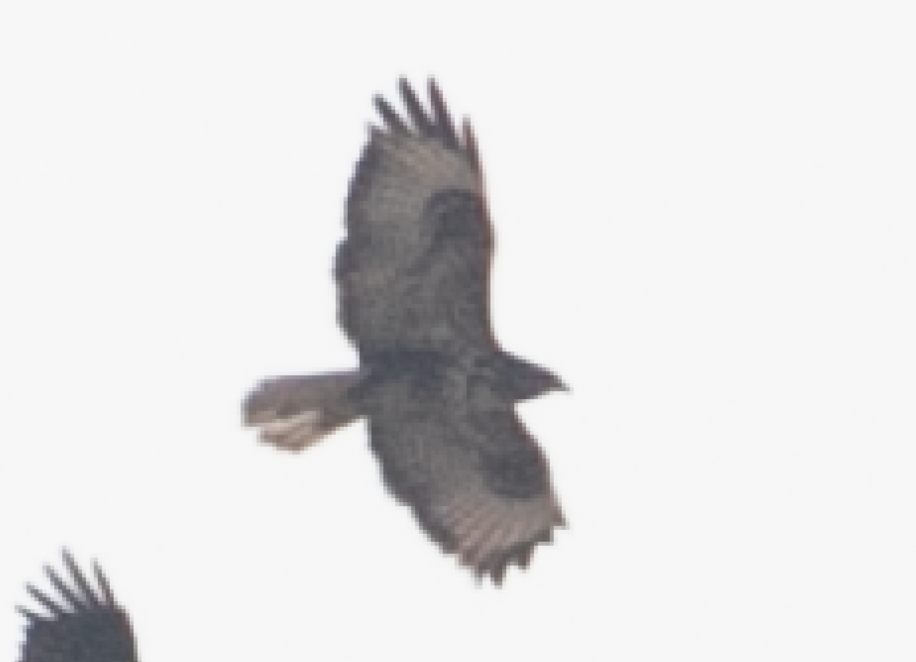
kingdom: Animalia
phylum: Chordata
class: Aves
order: Accipitriformes
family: Accipitridae
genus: Buteo
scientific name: Buteo buteo
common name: Common buzzard
